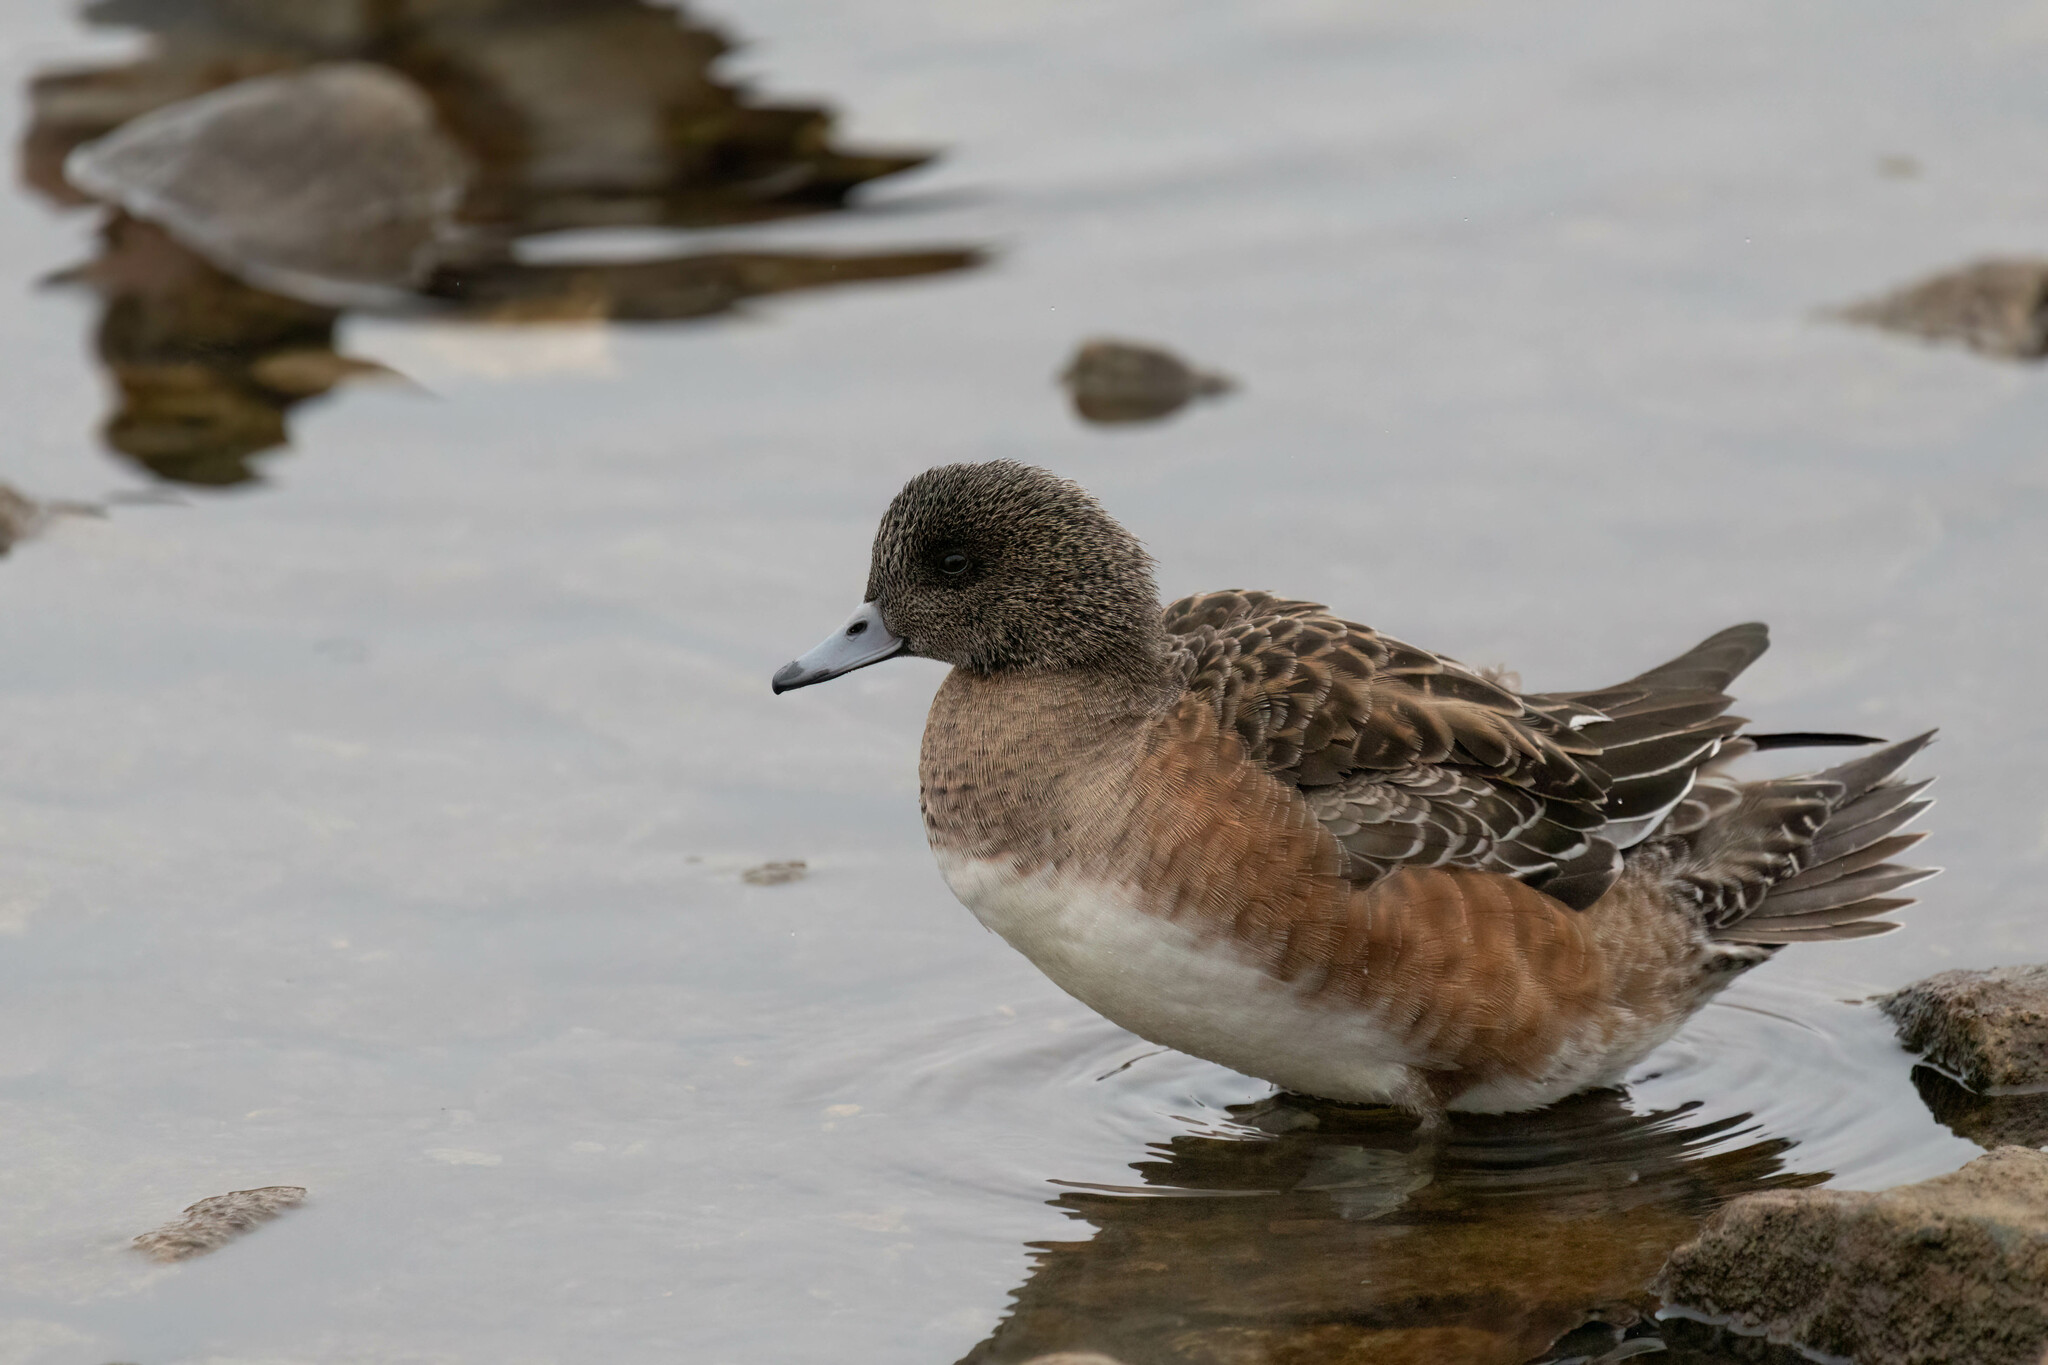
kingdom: Animalia
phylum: Chordata
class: Aves
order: Anseriformes
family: Anatidae
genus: Mareca
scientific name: Mareca americana
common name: American wigeon
